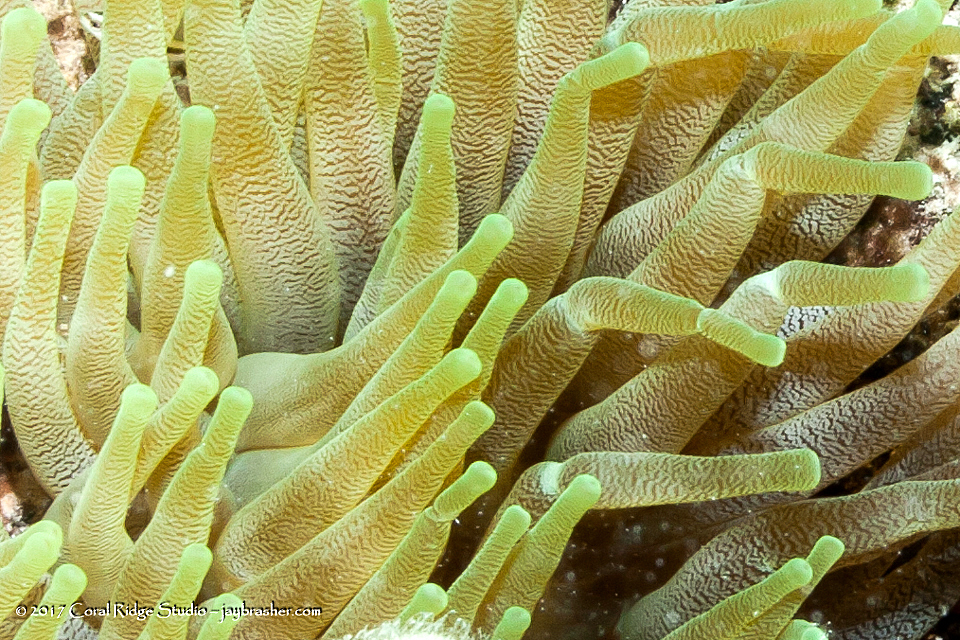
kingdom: Animalia
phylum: Cnidaria
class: Anthozoa
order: Actiniaria
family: Actiniidae
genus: Condylactis
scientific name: Condylactis gigantea
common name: Giant caribbean anemone
